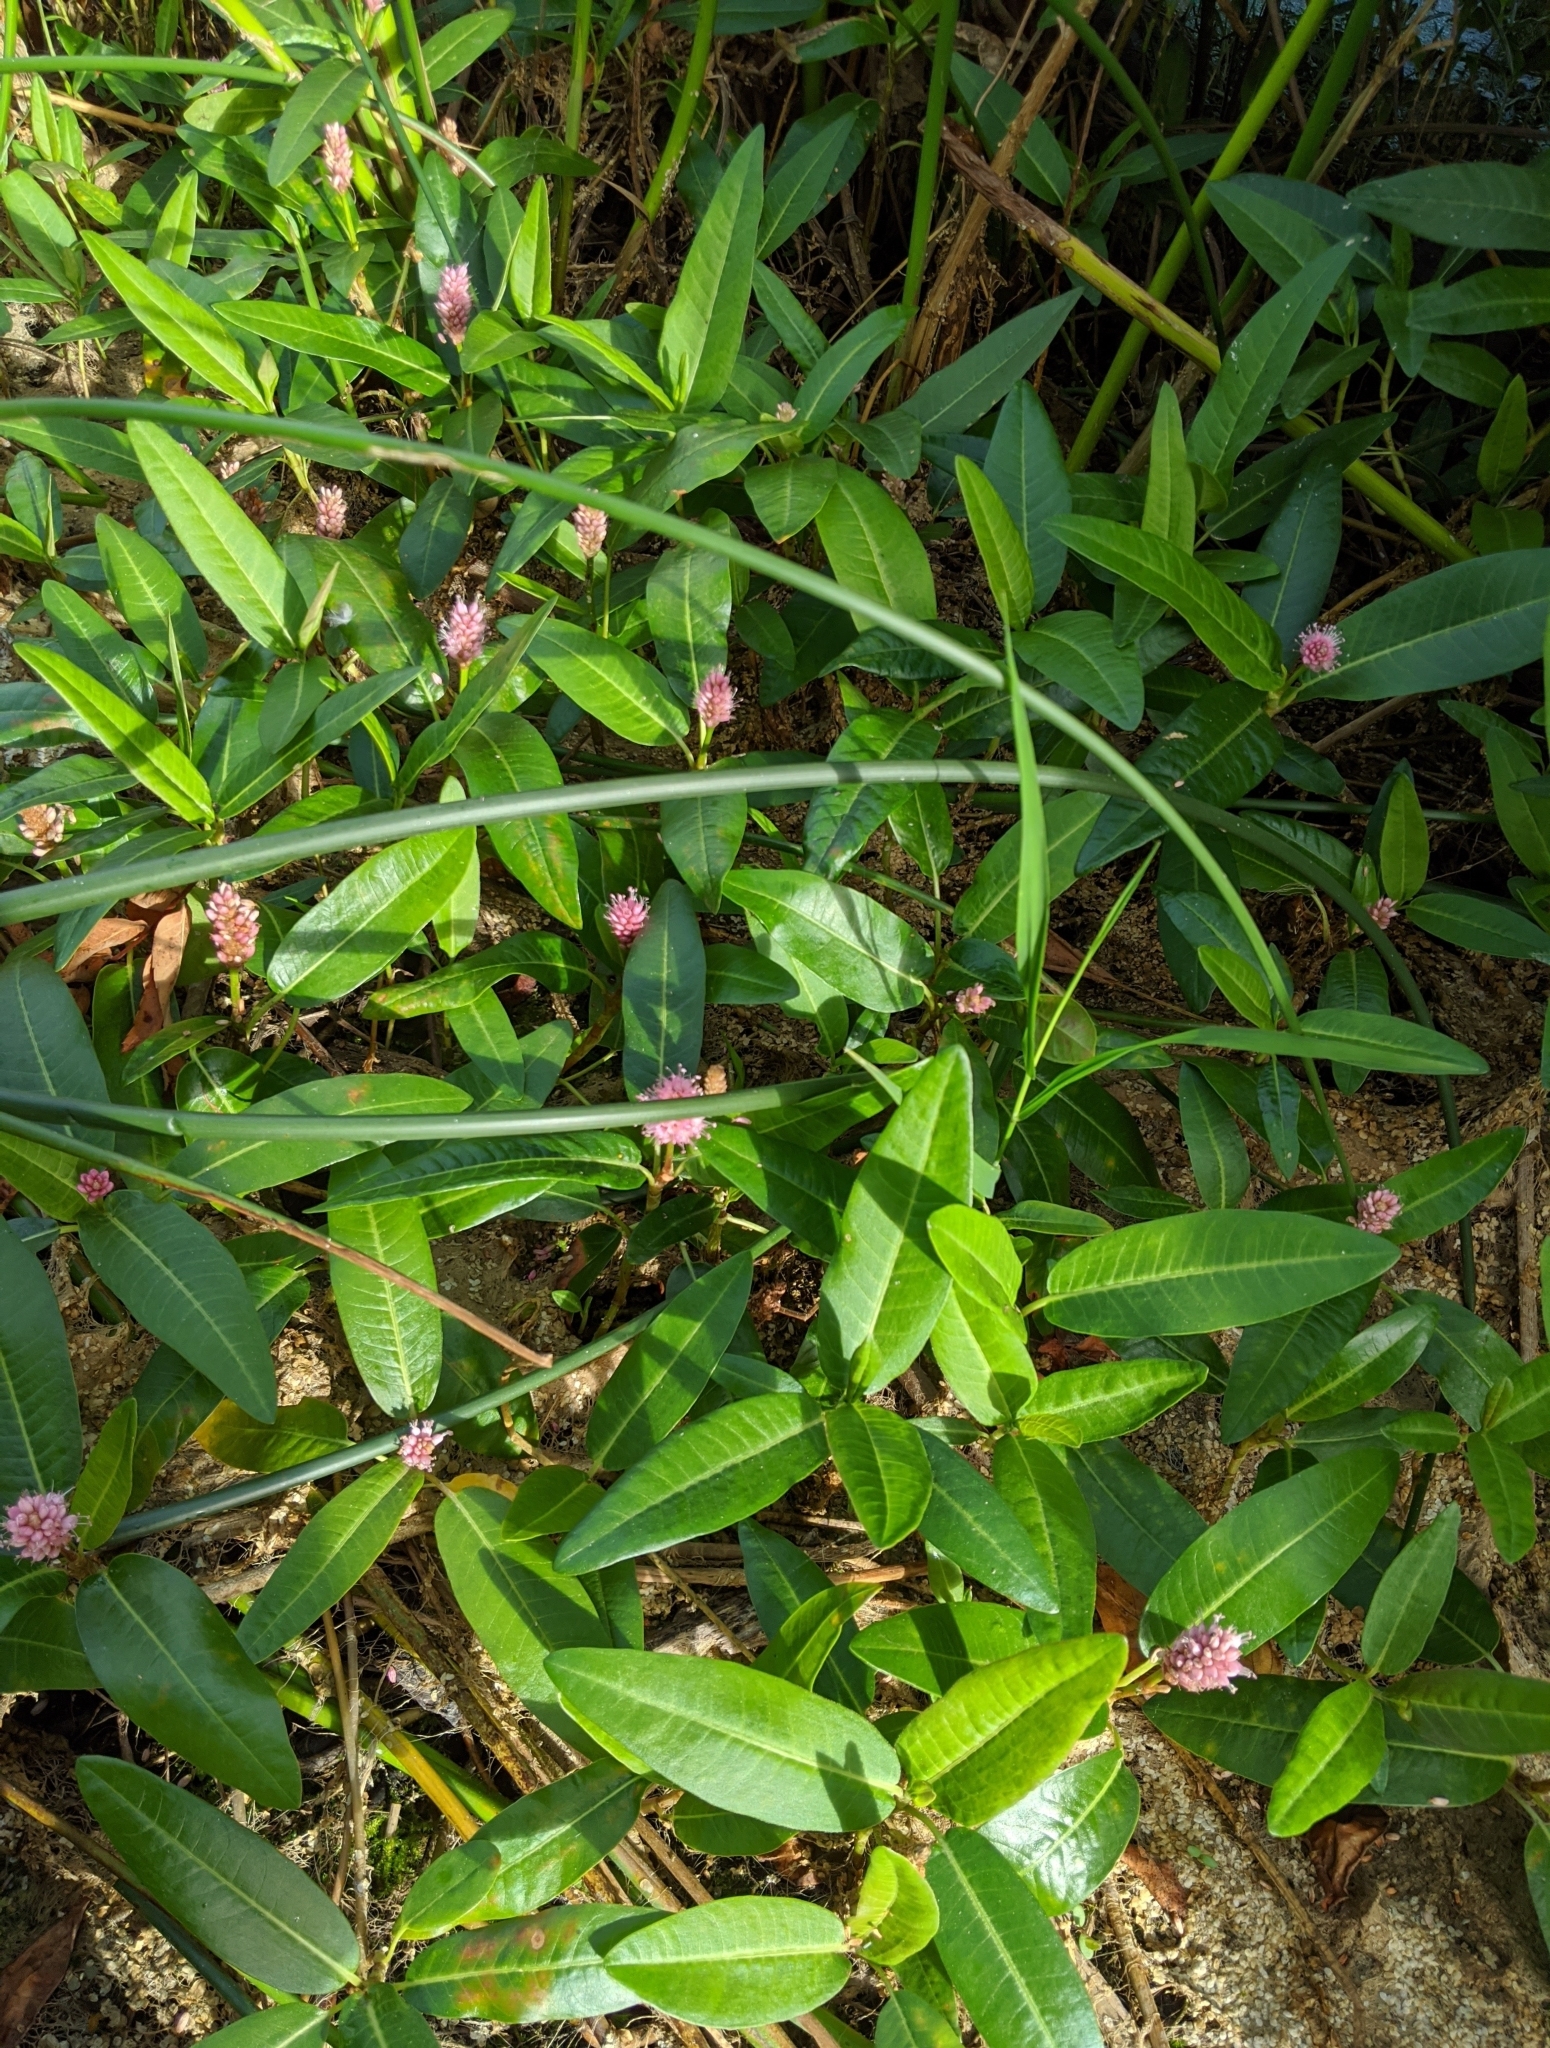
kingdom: Plantae
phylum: Tracheophyta
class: Magnoliopsida
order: Caryophyllales
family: Polygonaceae
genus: Persicaria
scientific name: Persicaria amphibia
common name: Amphibious bistort
